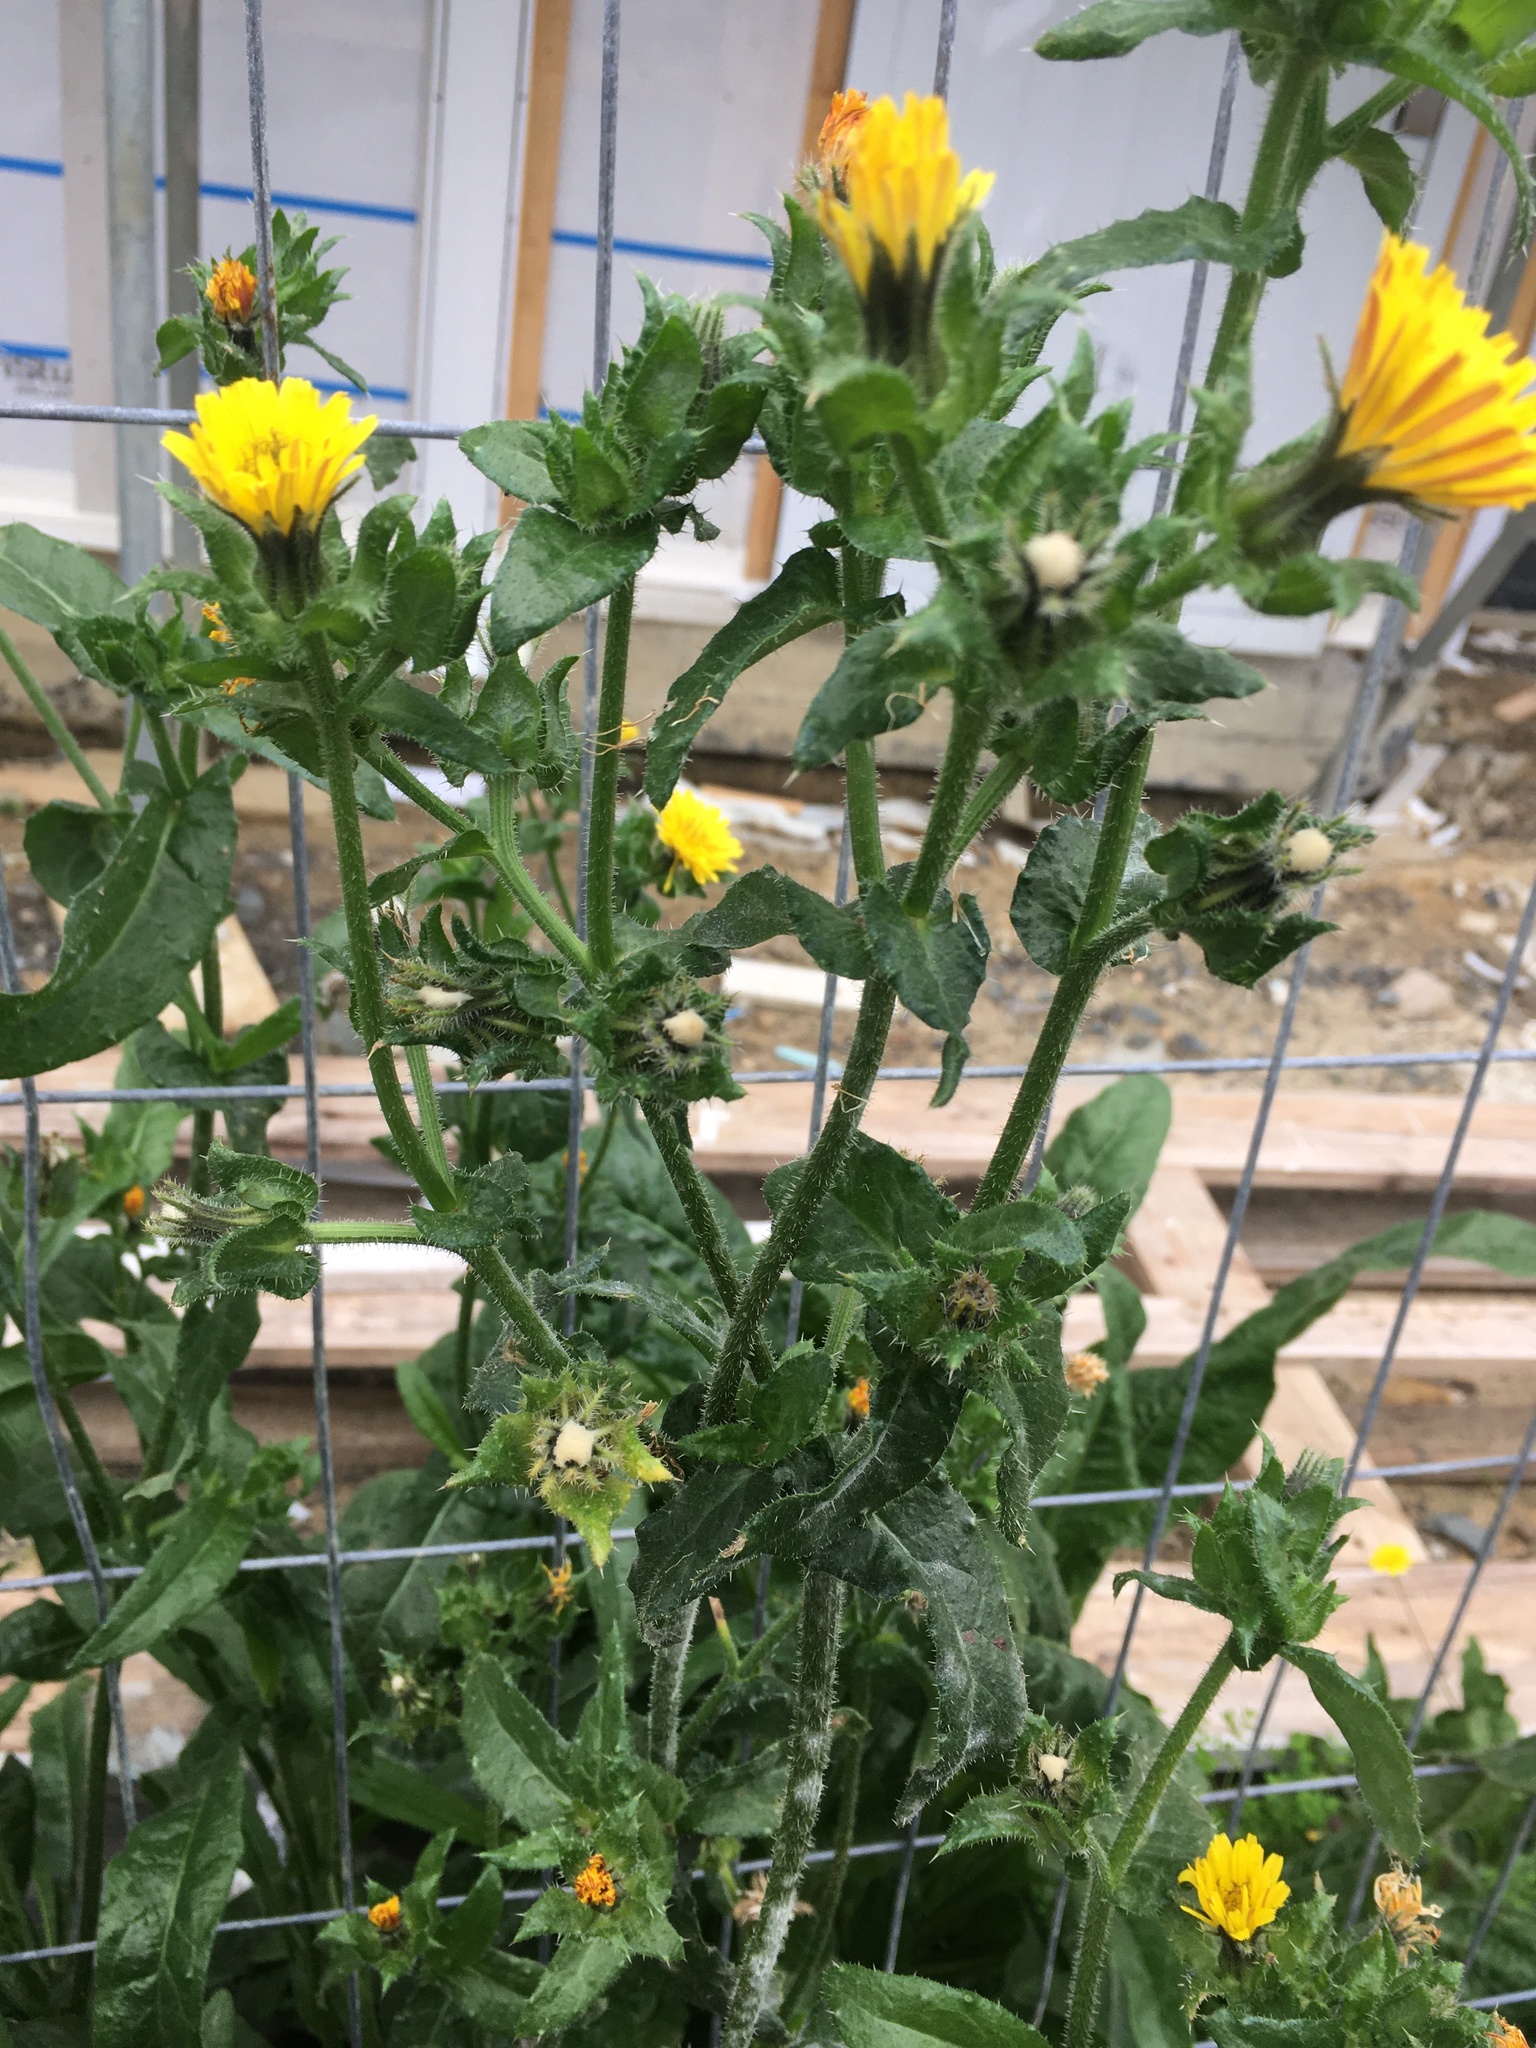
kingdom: Plantae
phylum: Tracheophyta
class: Magnoliopsida
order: Asterales
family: Asteraceae
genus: Helminthotheca
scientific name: Helminthotheca echioides
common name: Ox-tongue
